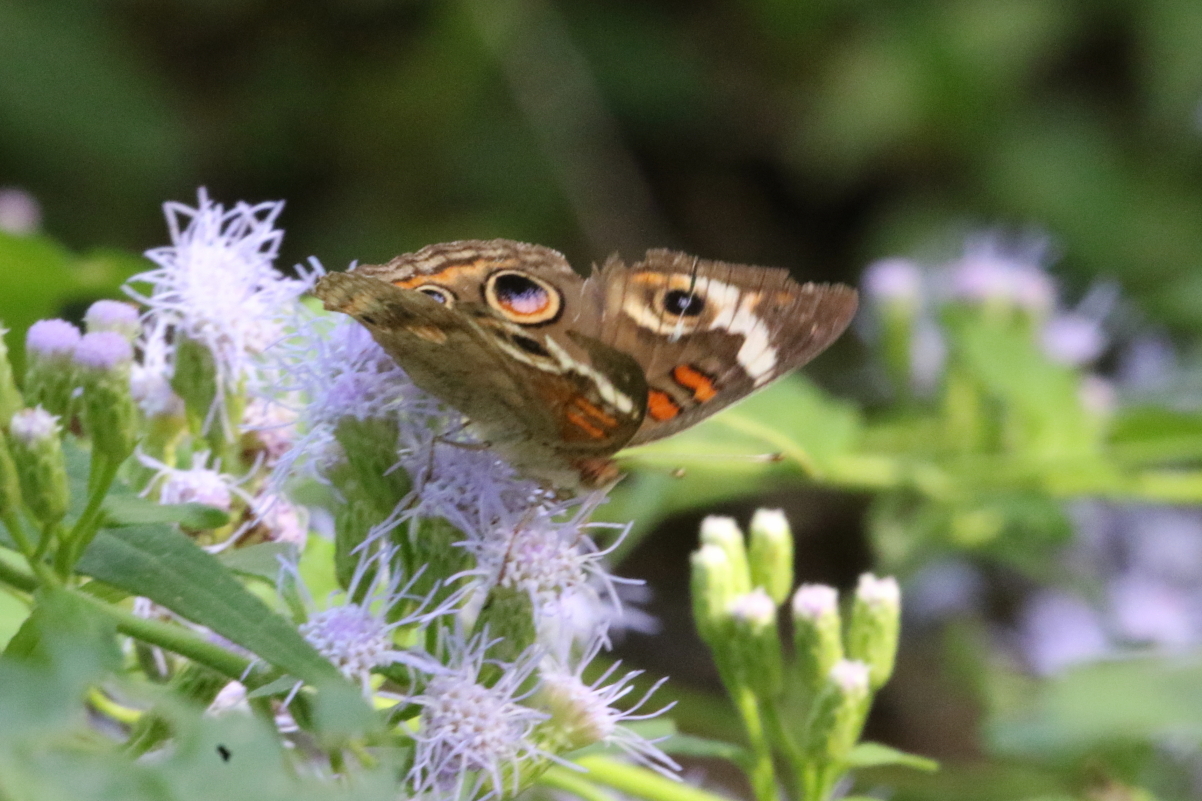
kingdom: Animalia
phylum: Arthropoda
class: Insecta
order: Lepidoptera
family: Nymphalidae
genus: Junonia
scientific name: Junonia coenia
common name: Common buckeye
